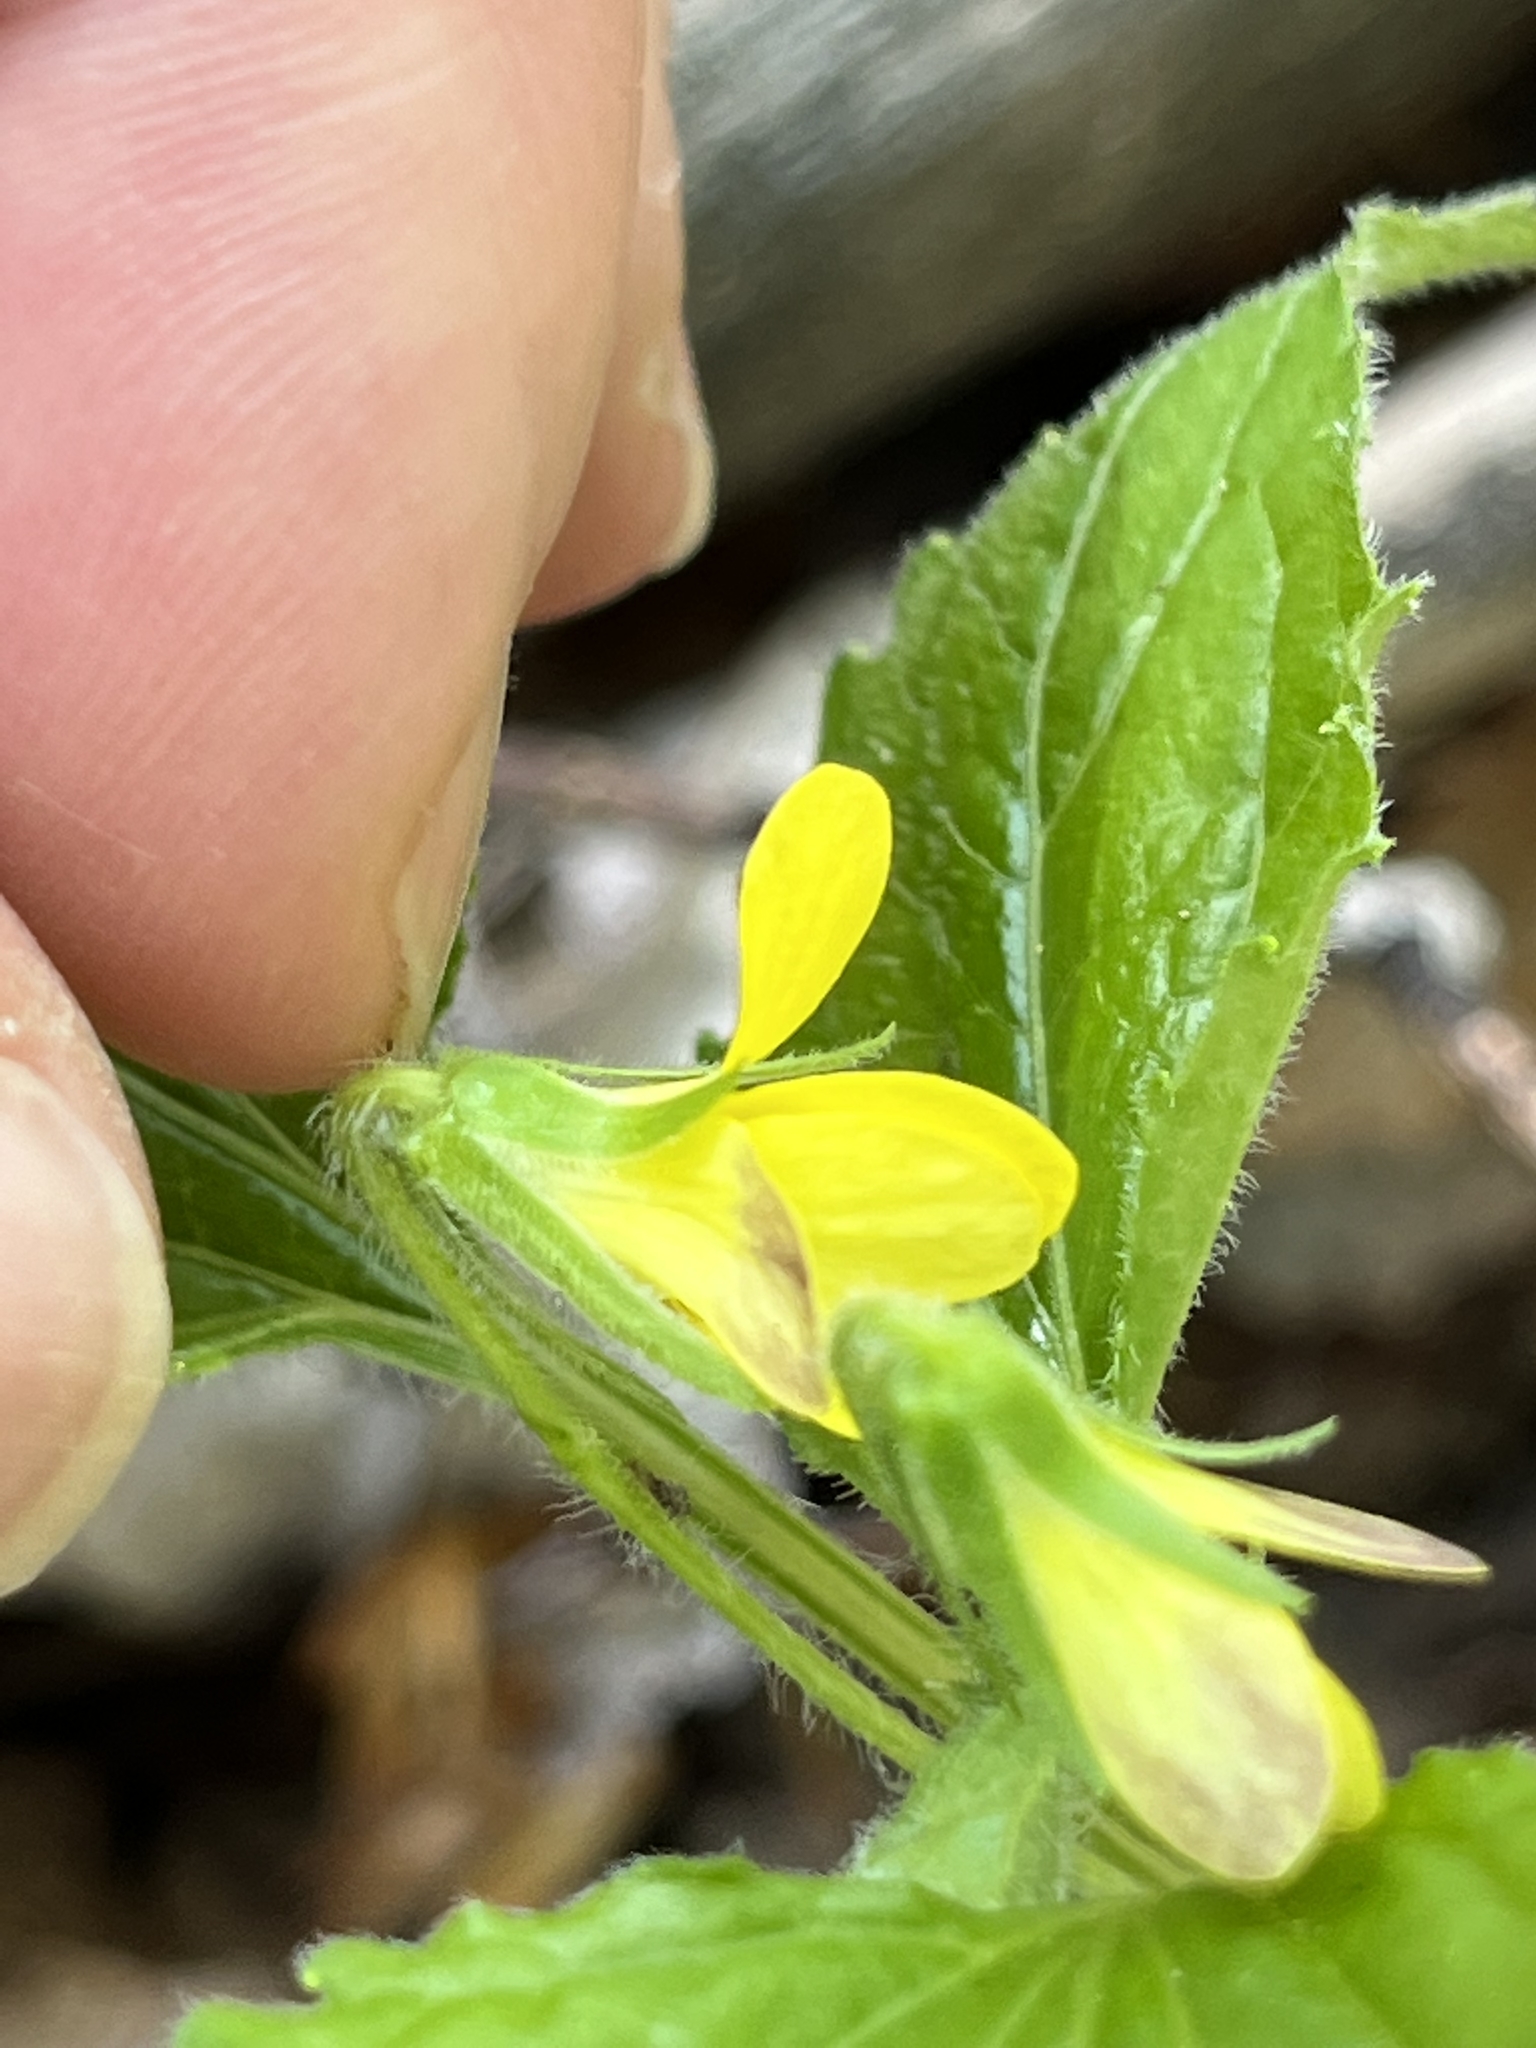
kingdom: Plantae
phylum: Tracheophyta
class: Magnoliopsida
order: Malpighiales
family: Violaceae
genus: Viola
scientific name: Viola glaberrima
